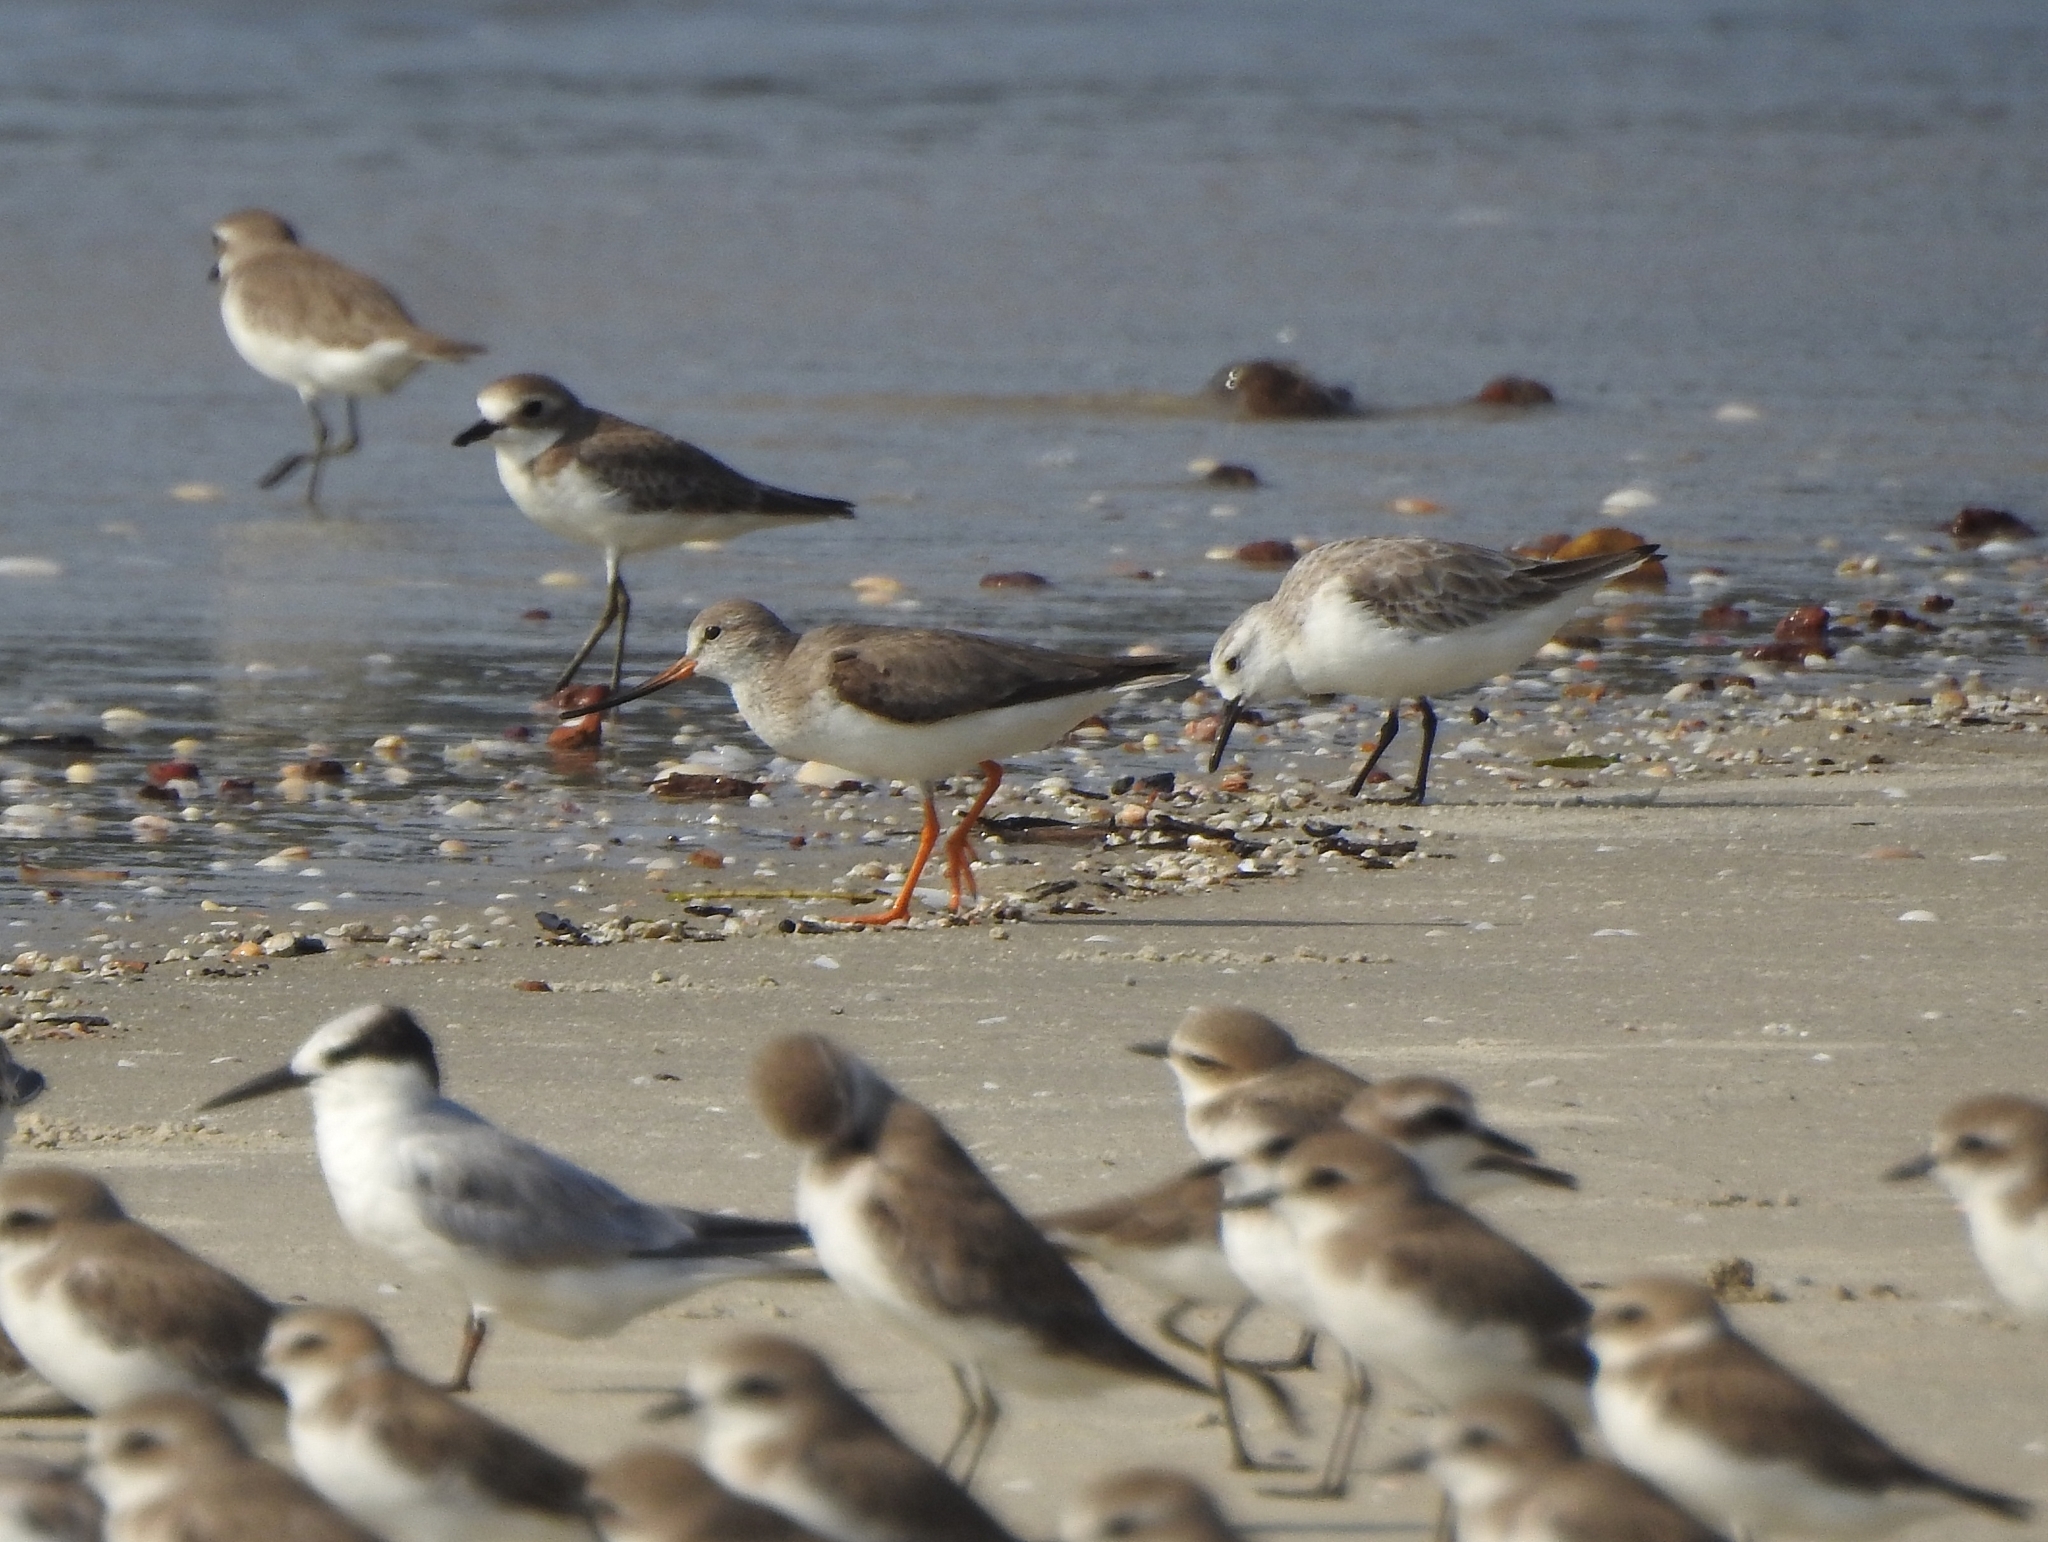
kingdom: Animalia
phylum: Chordata
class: Aves
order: Charadriiformes
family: Charadriidae
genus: Anarhynchus
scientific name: Anarhynchus
